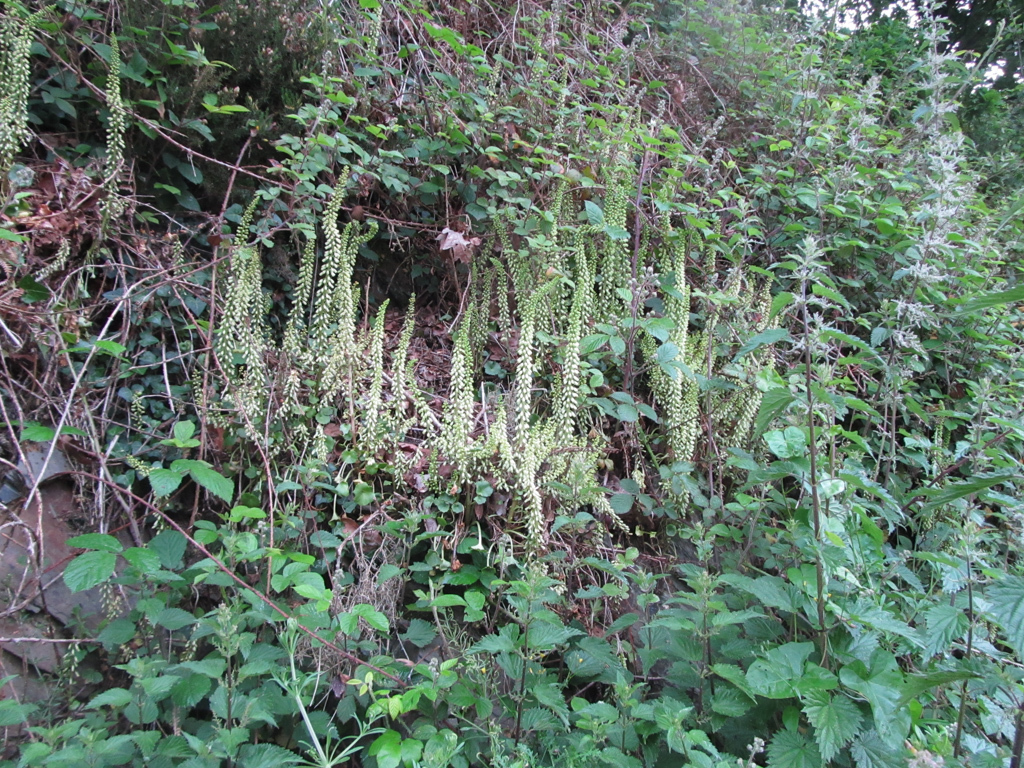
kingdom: Plantae
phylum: Tracheophyta
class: Magnoliopsida
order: Saxifragales
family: Crassulaceae
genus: Umbilicus
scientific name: Umbilicus rupestris
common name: Navelwort
